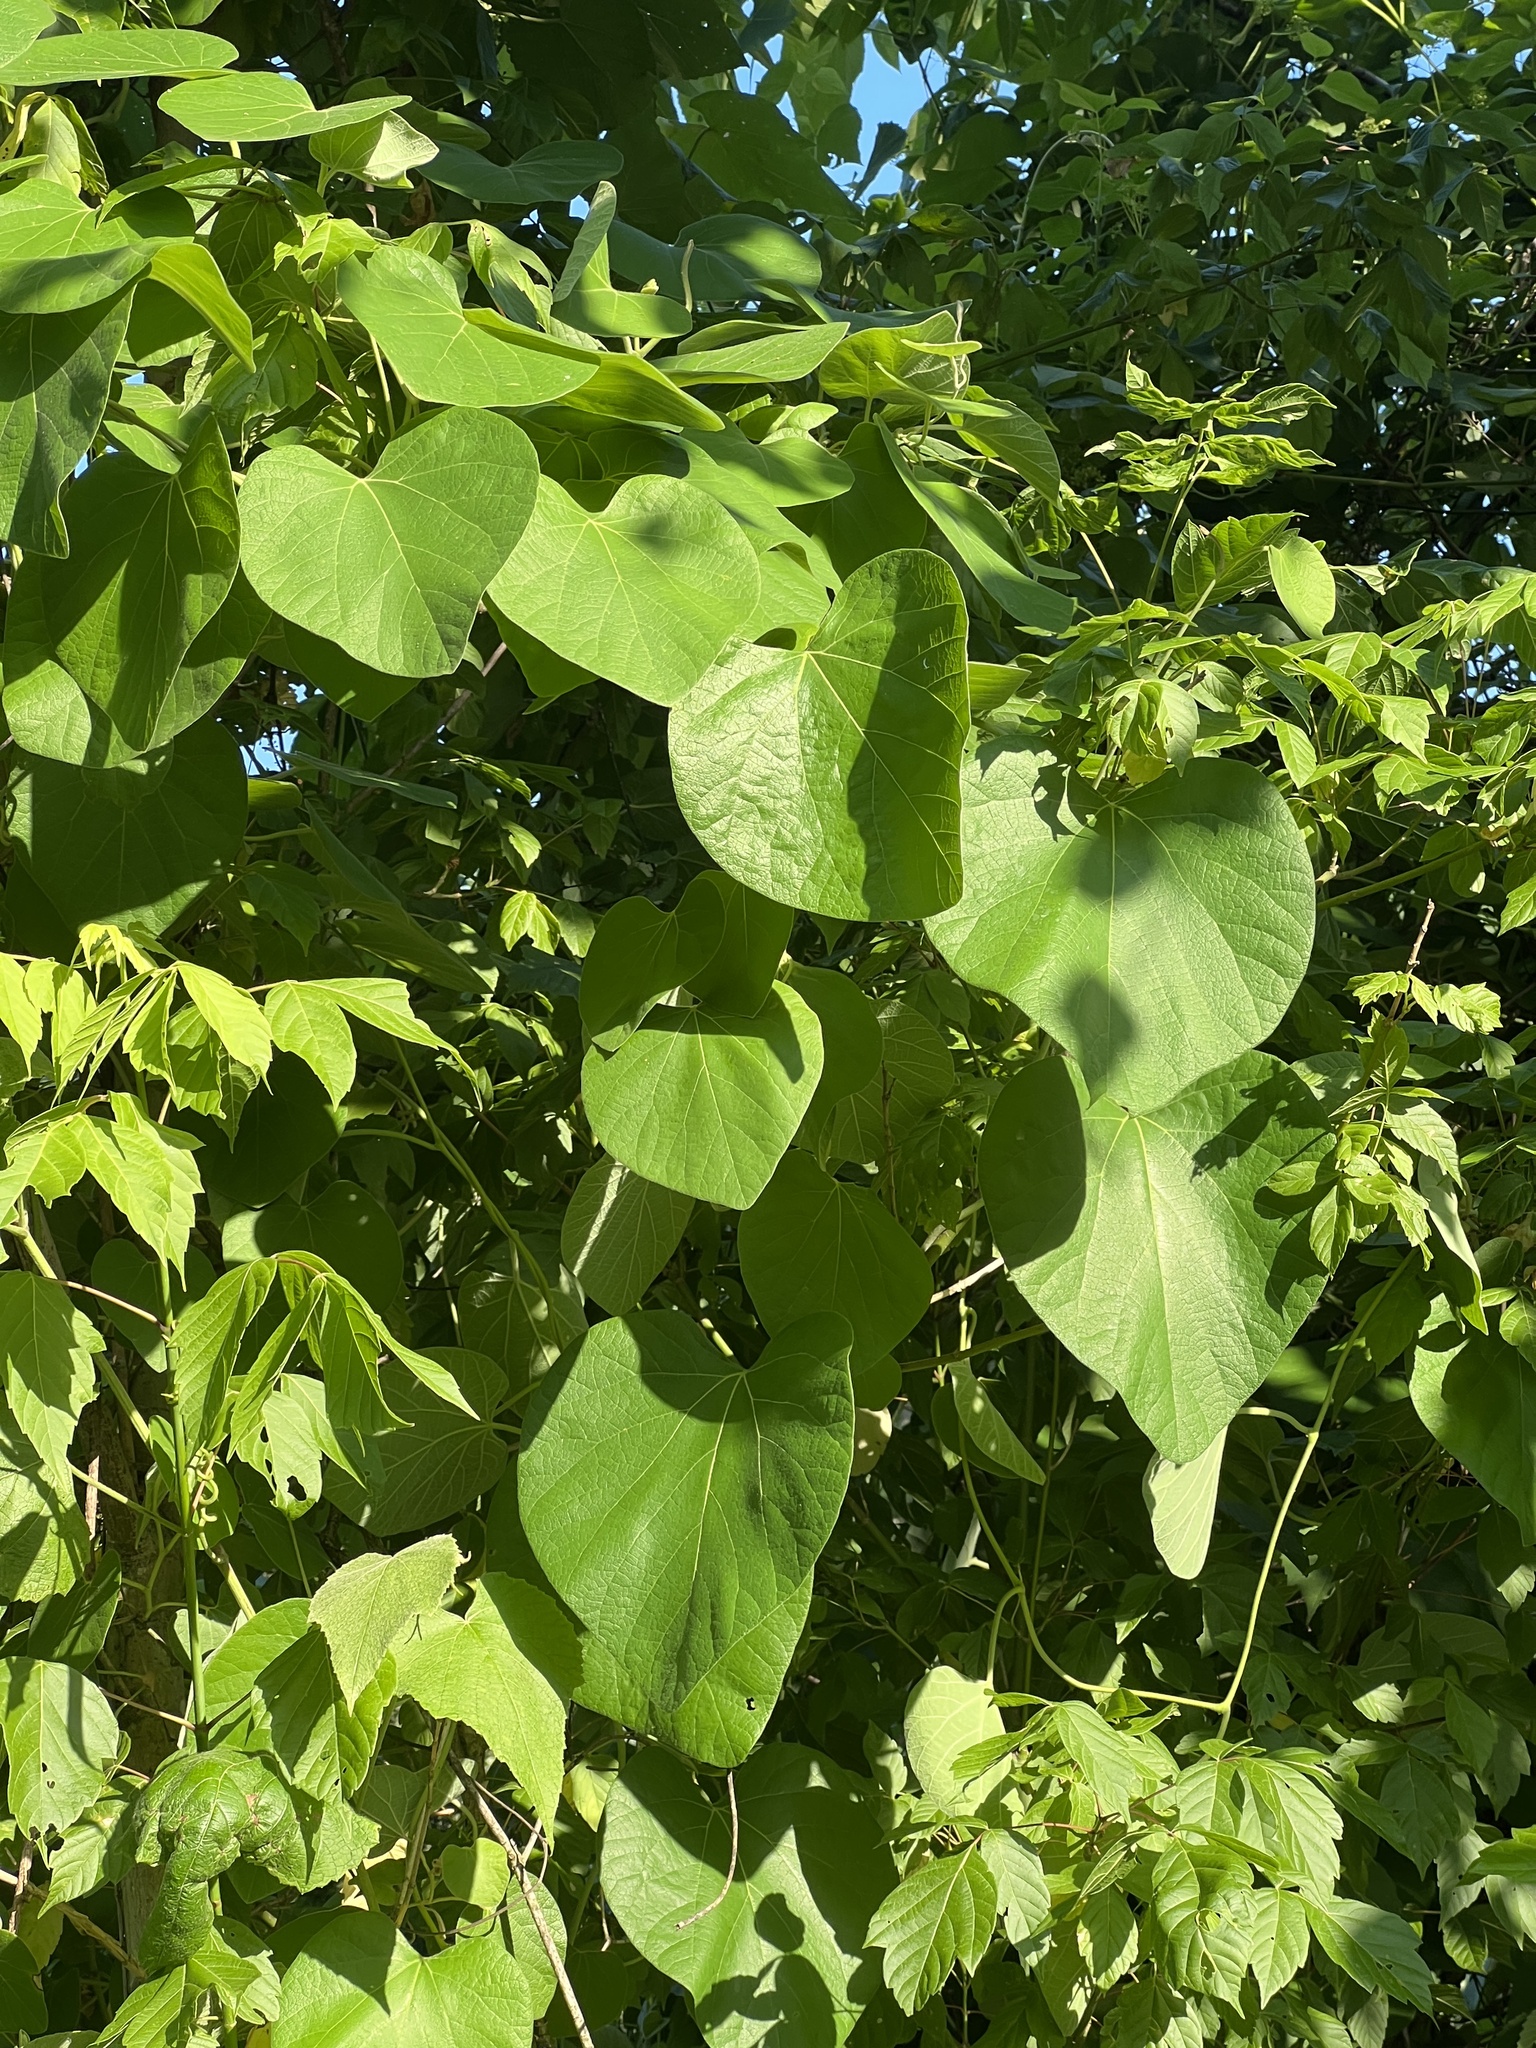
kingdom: Plantae
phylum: Tracheophyta
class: Magnoliopsida
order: Piperales
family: Aristolochiaceae
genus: Isotrema
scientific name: Isotrema tomentosum
